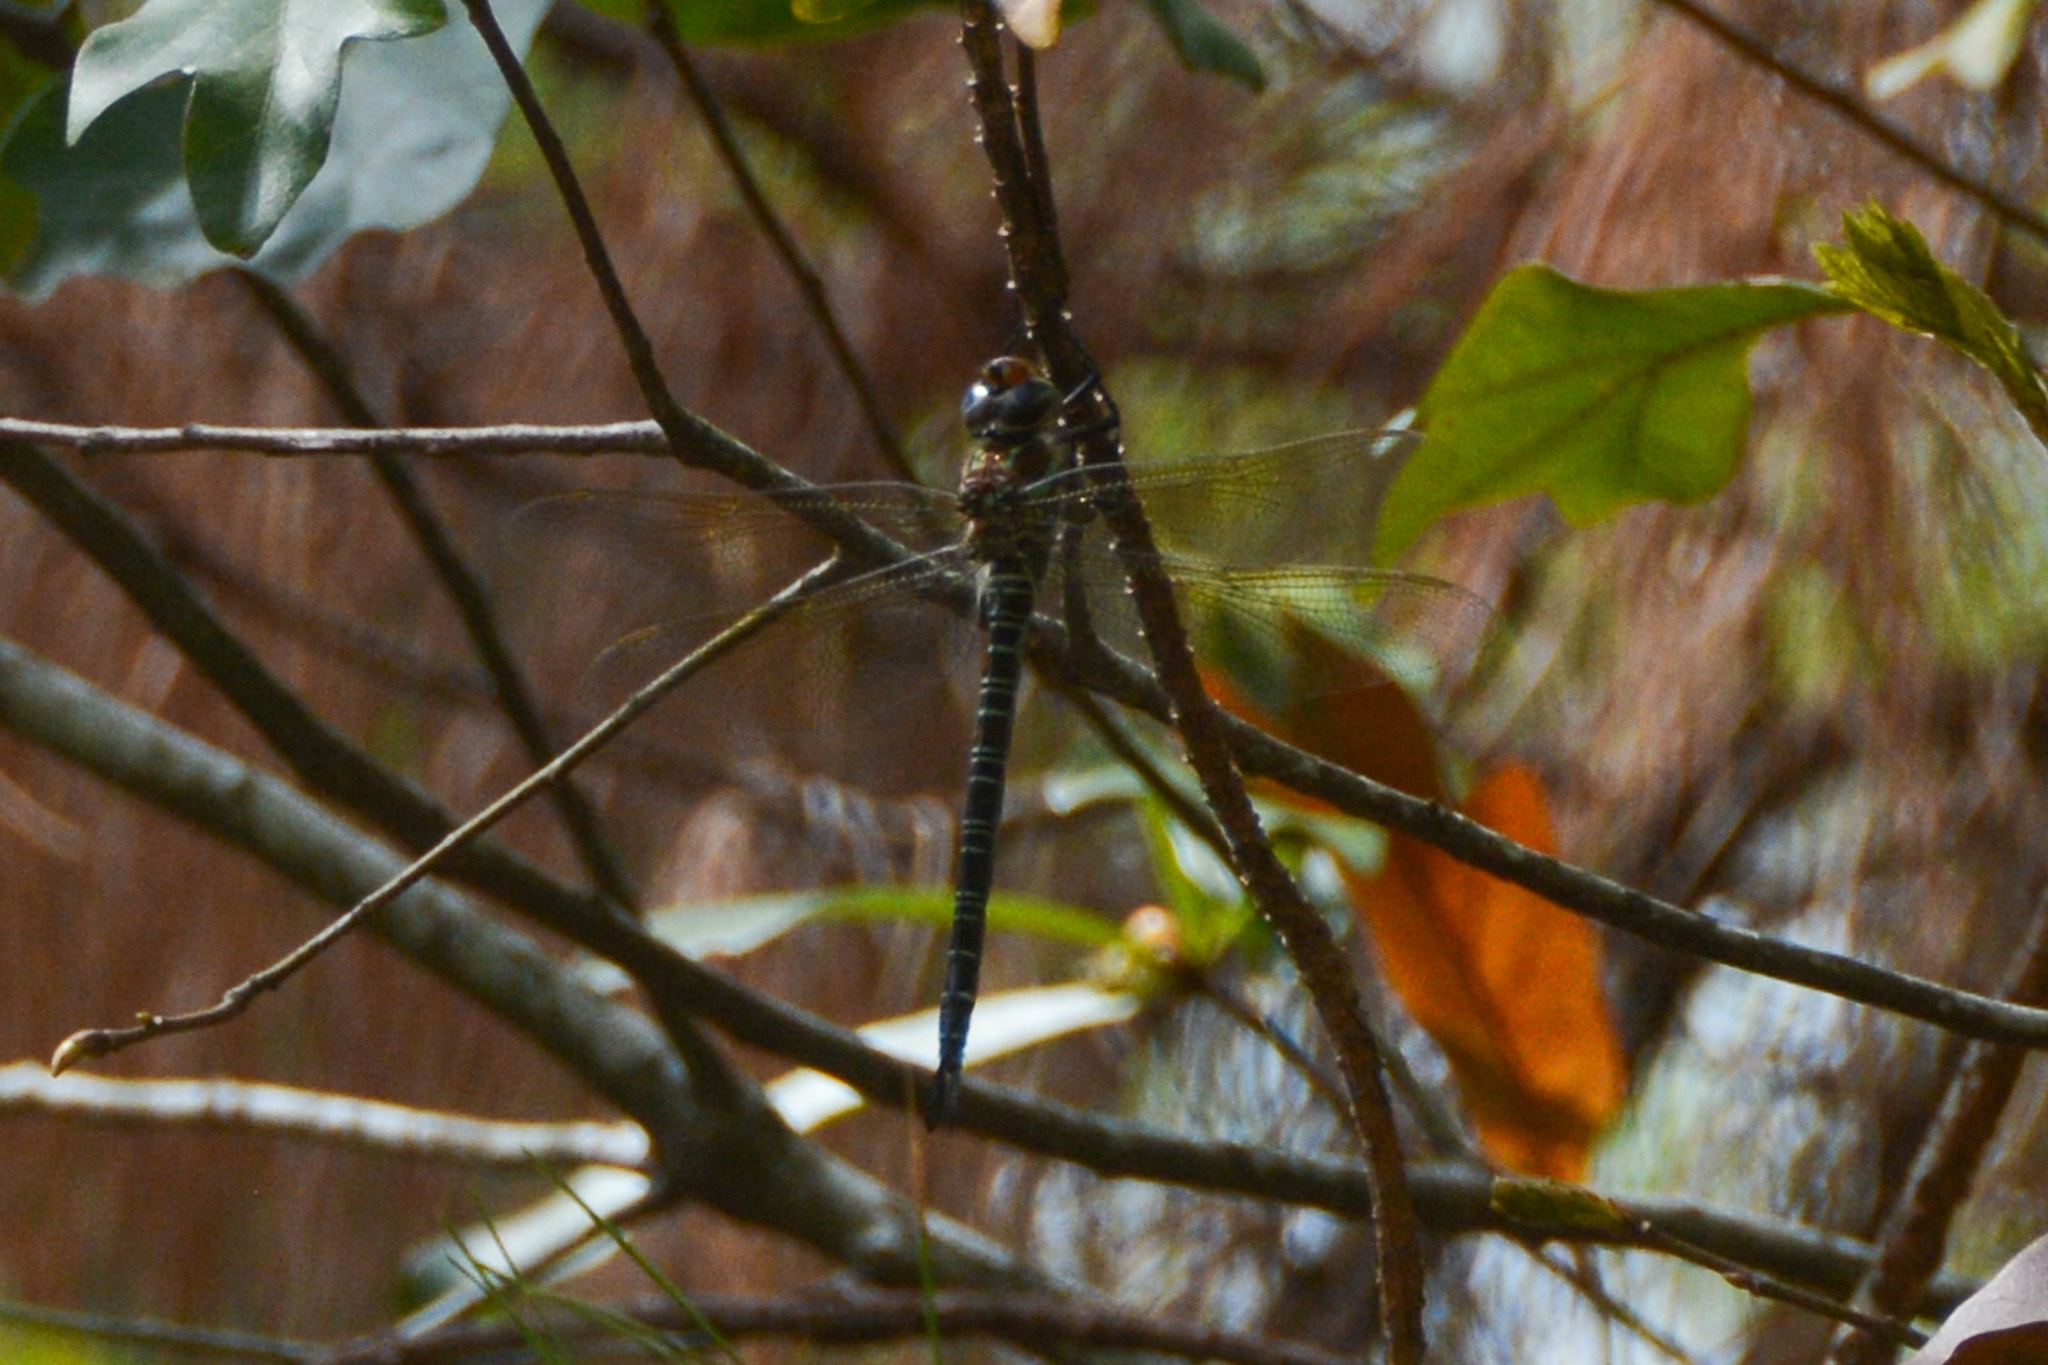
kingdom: Animalia
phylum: Arthropoda
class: Insecta
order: Odonata
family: Aeshnidae
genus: Epiaeschna
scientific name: Epiaeschna heros
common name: Swamp darner
